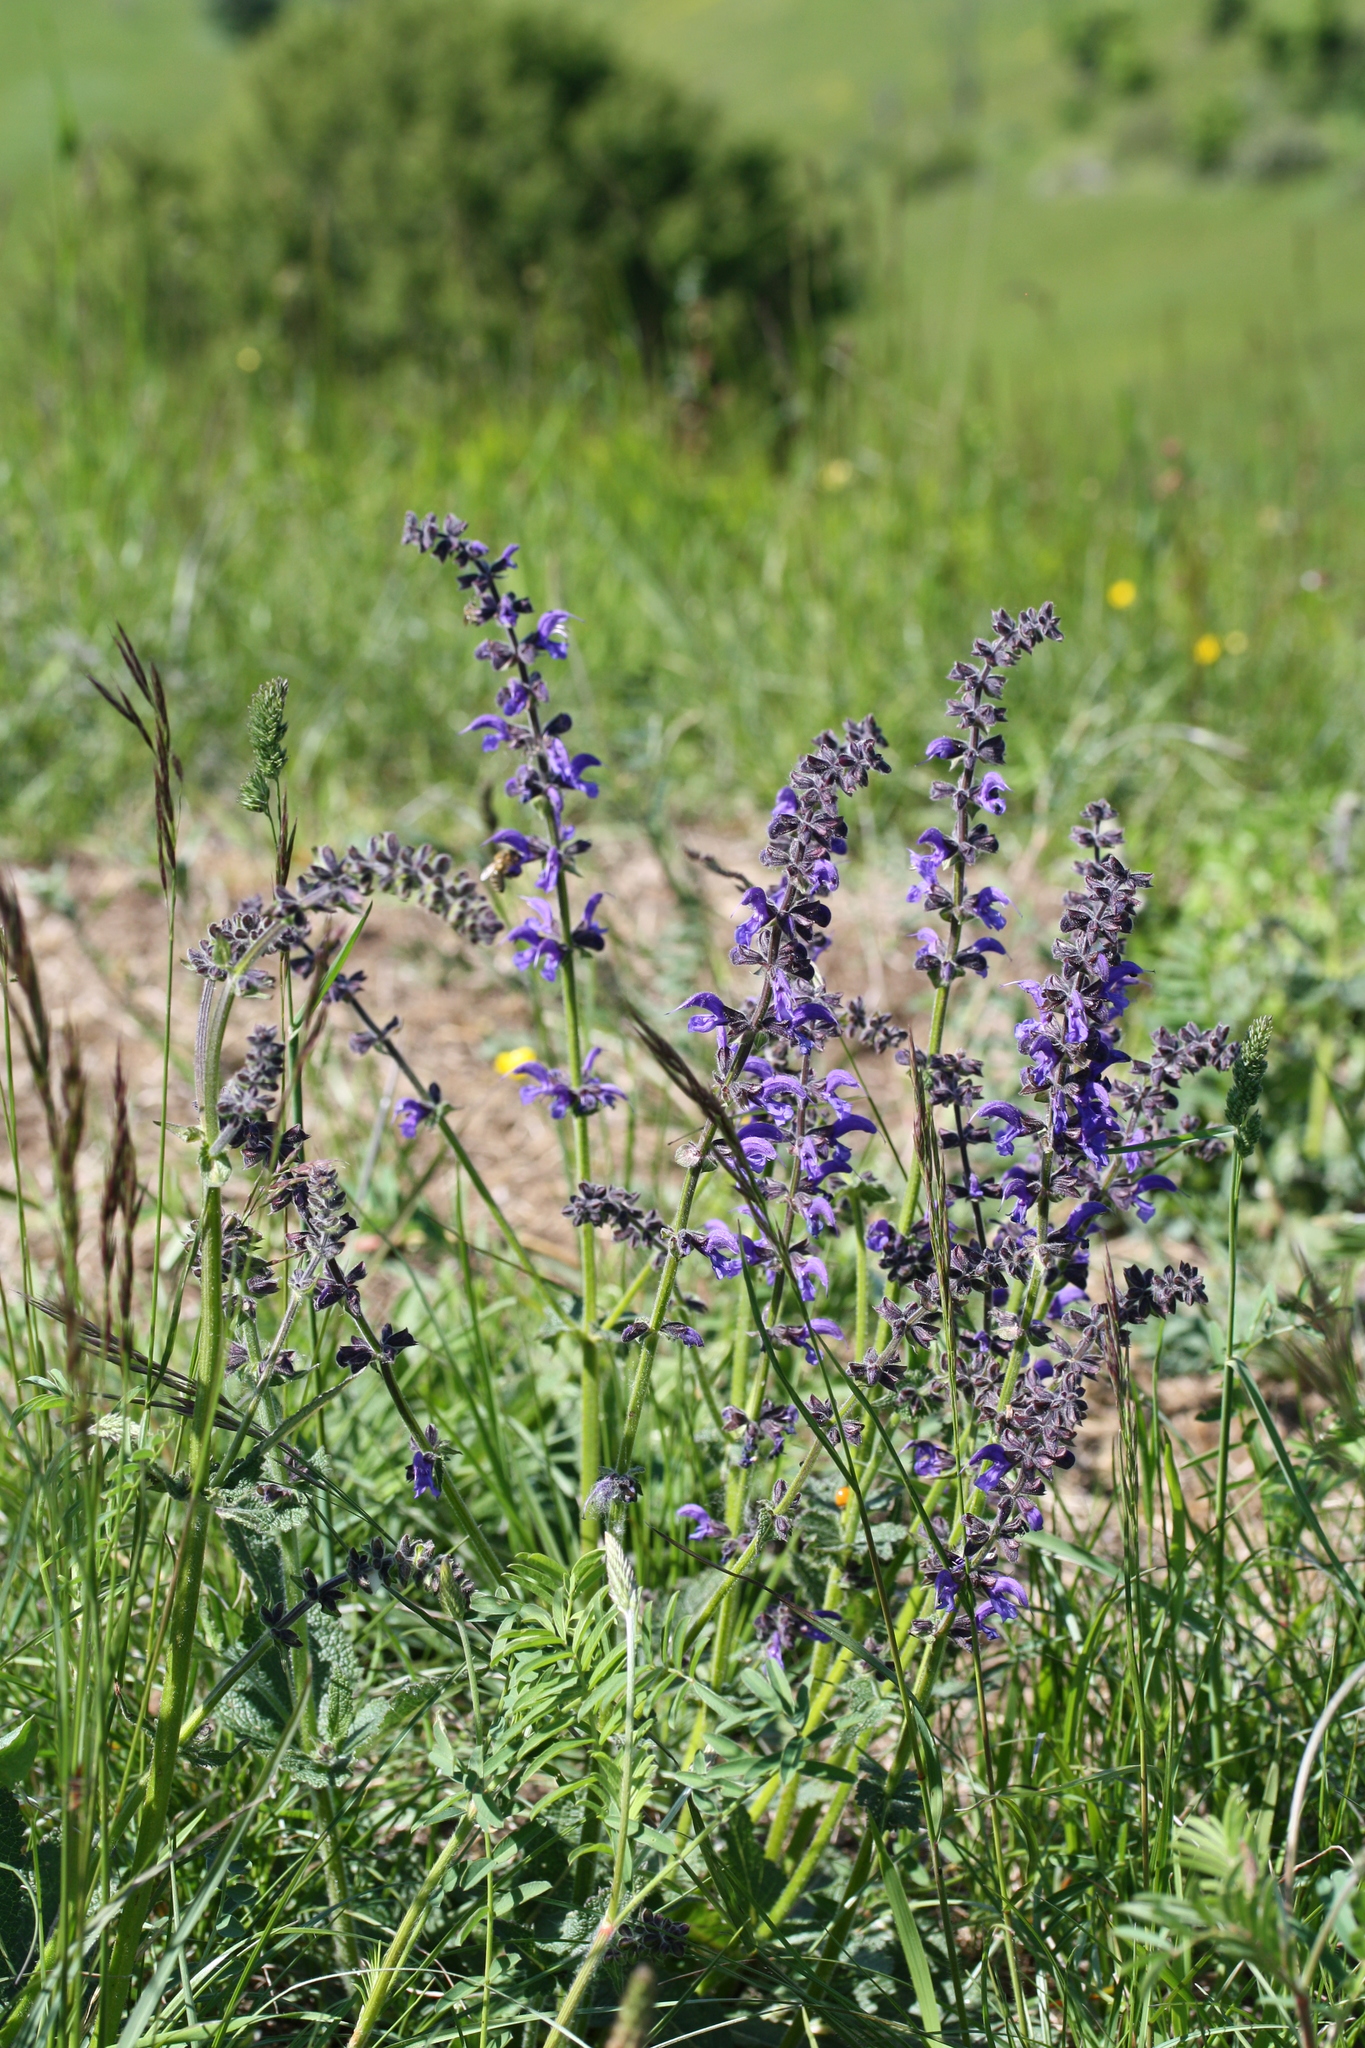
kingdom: Plantae
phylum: Tracheophyta
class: Magnoliopsida
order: Lamiales
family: Lamiaceae
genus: Salvia
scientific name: Salvia pratensis
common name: Meadow sage
